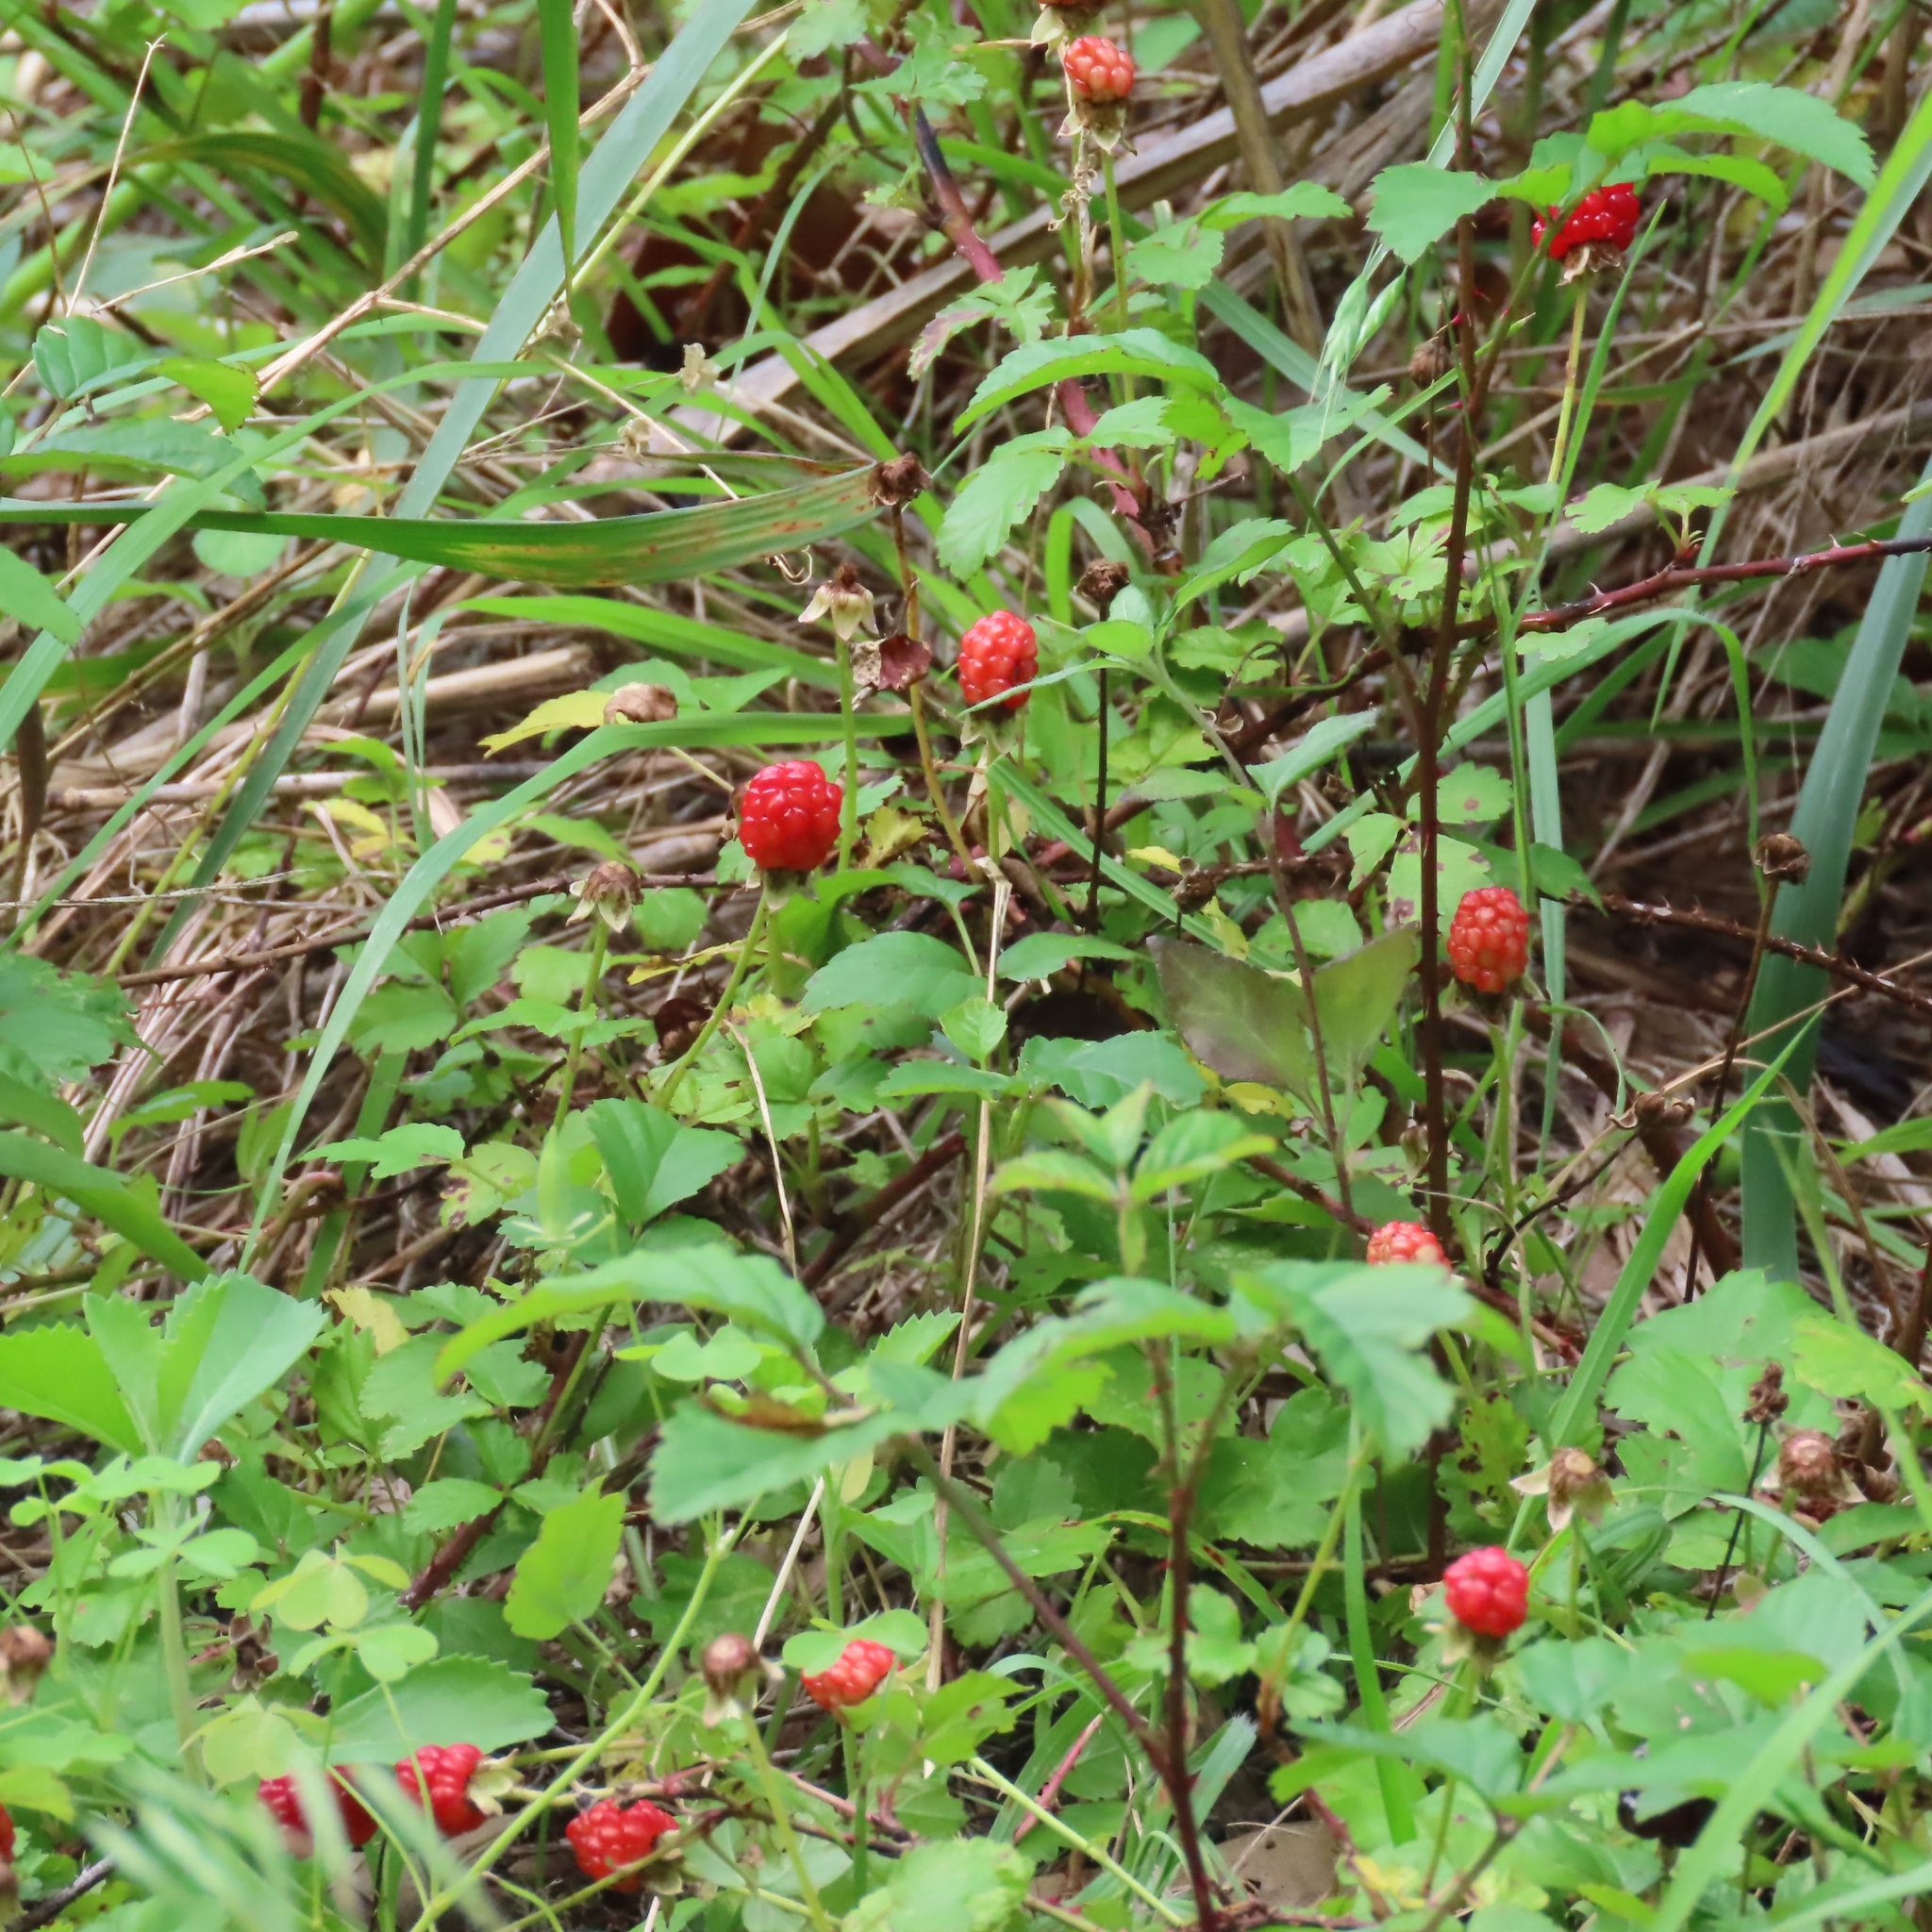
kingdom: Plantae
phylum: Tracheophyta
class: Magnoliopsida
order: Rosales
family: Rosaceae
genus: Rubus
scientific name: Rubus trivialis
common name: Southern dewberry
